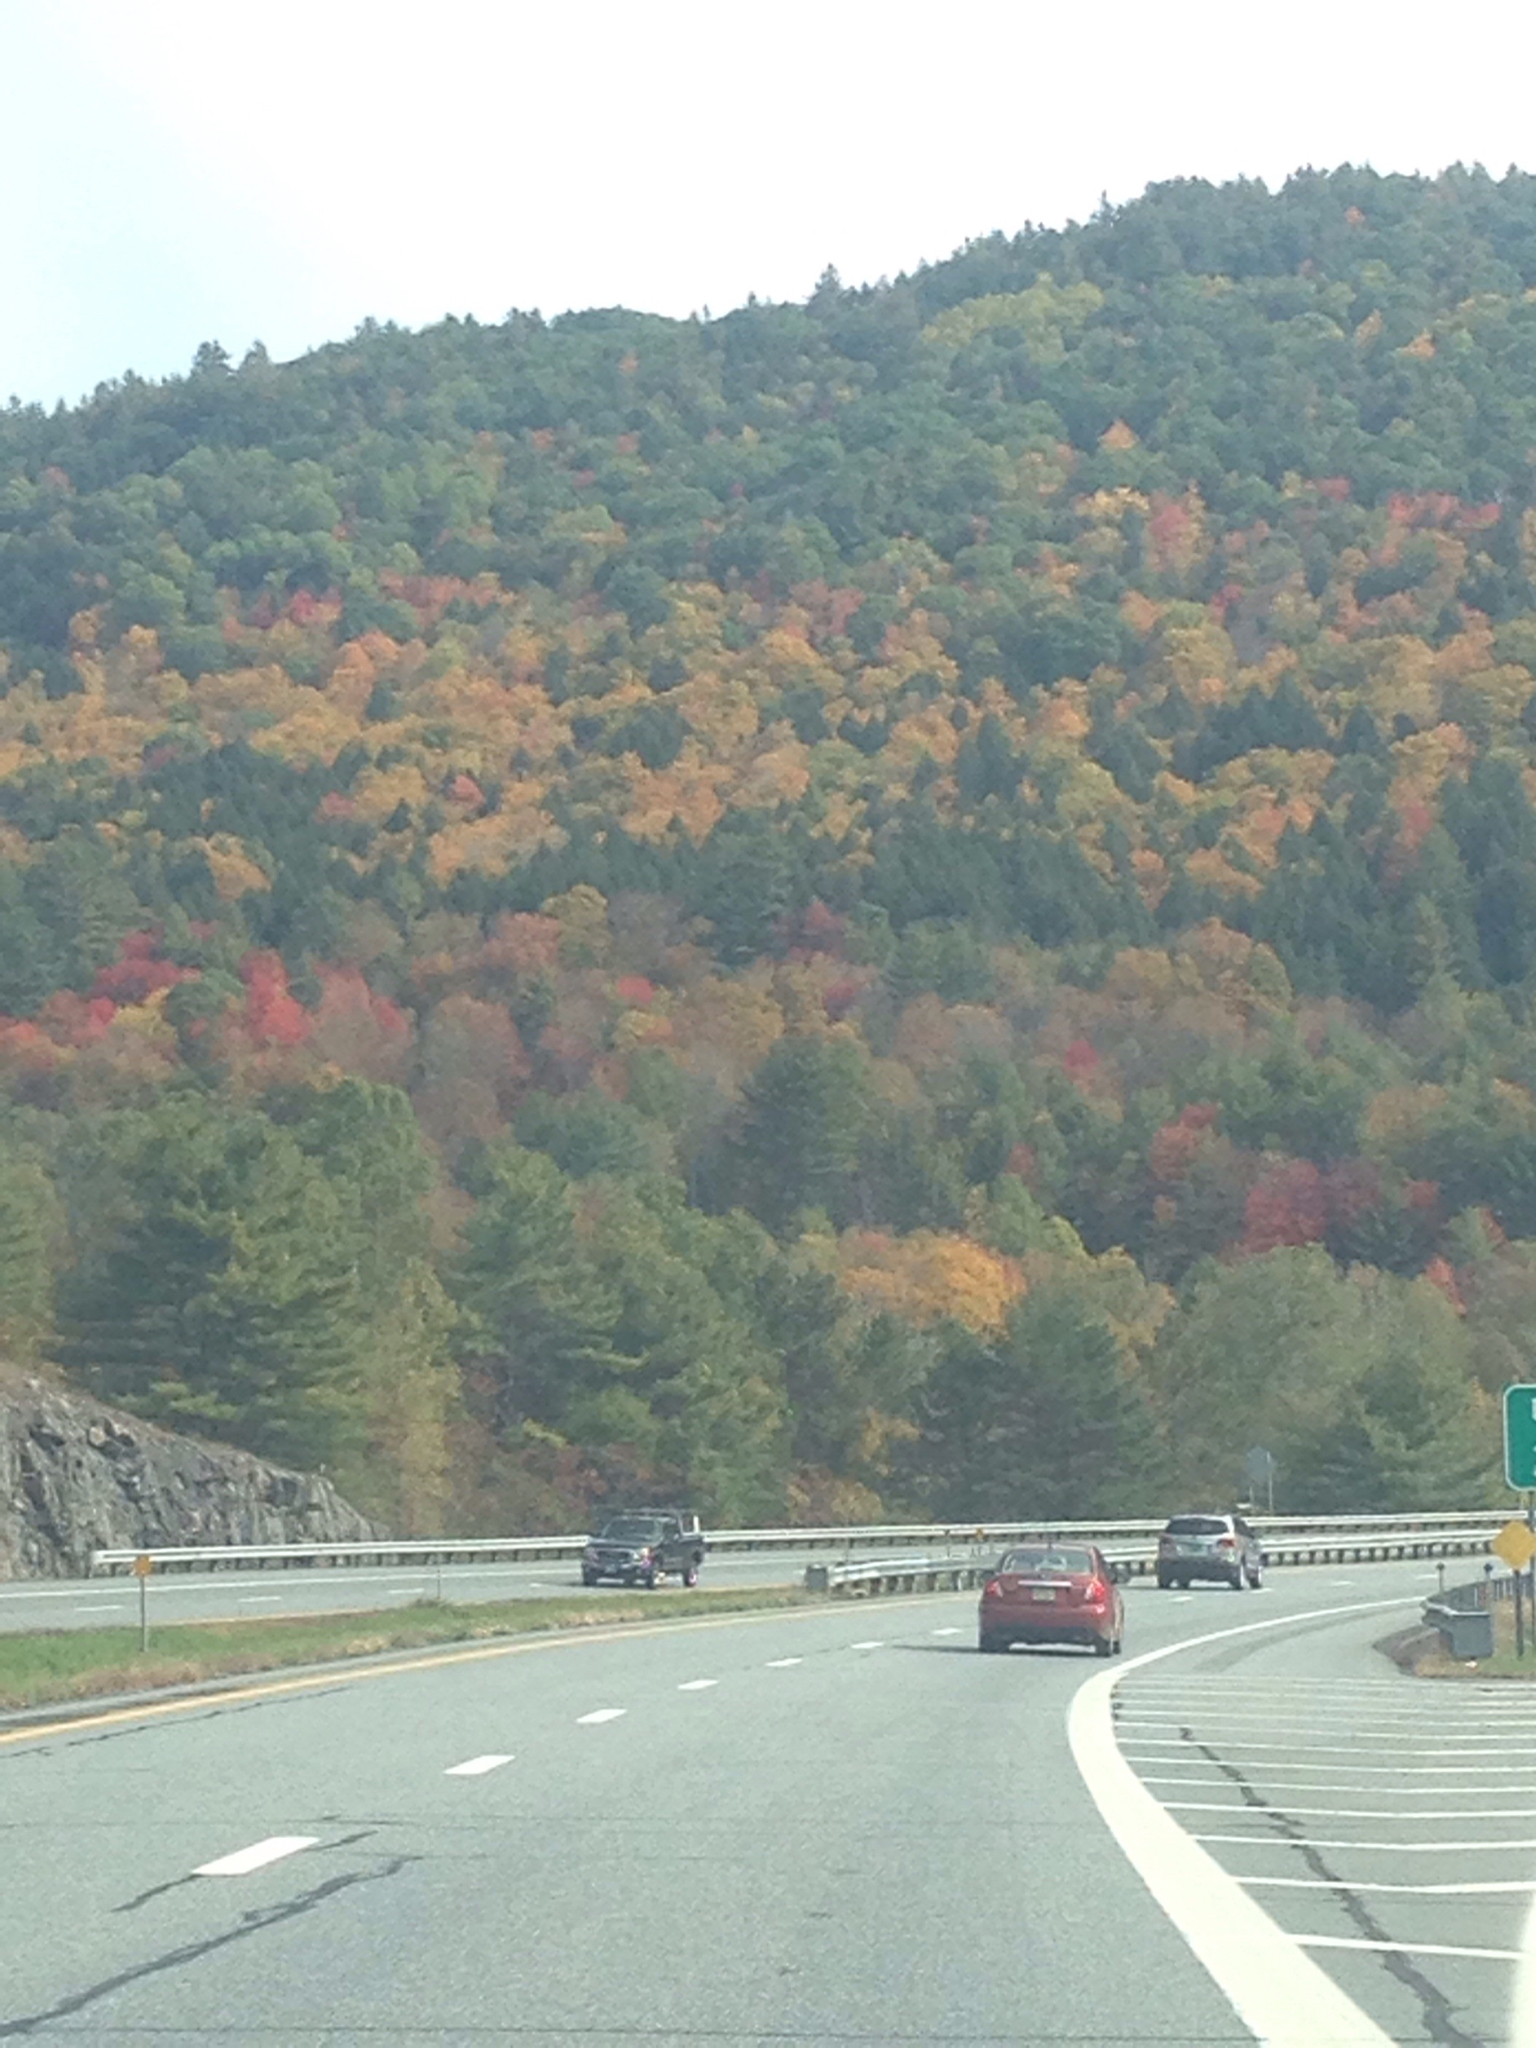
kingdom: Plantae
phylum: Tracheophyta
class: Magnoliopsida
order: Fagales
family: Fagaceae
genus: Quercus
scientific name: Quercus rubra
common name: Red oak
